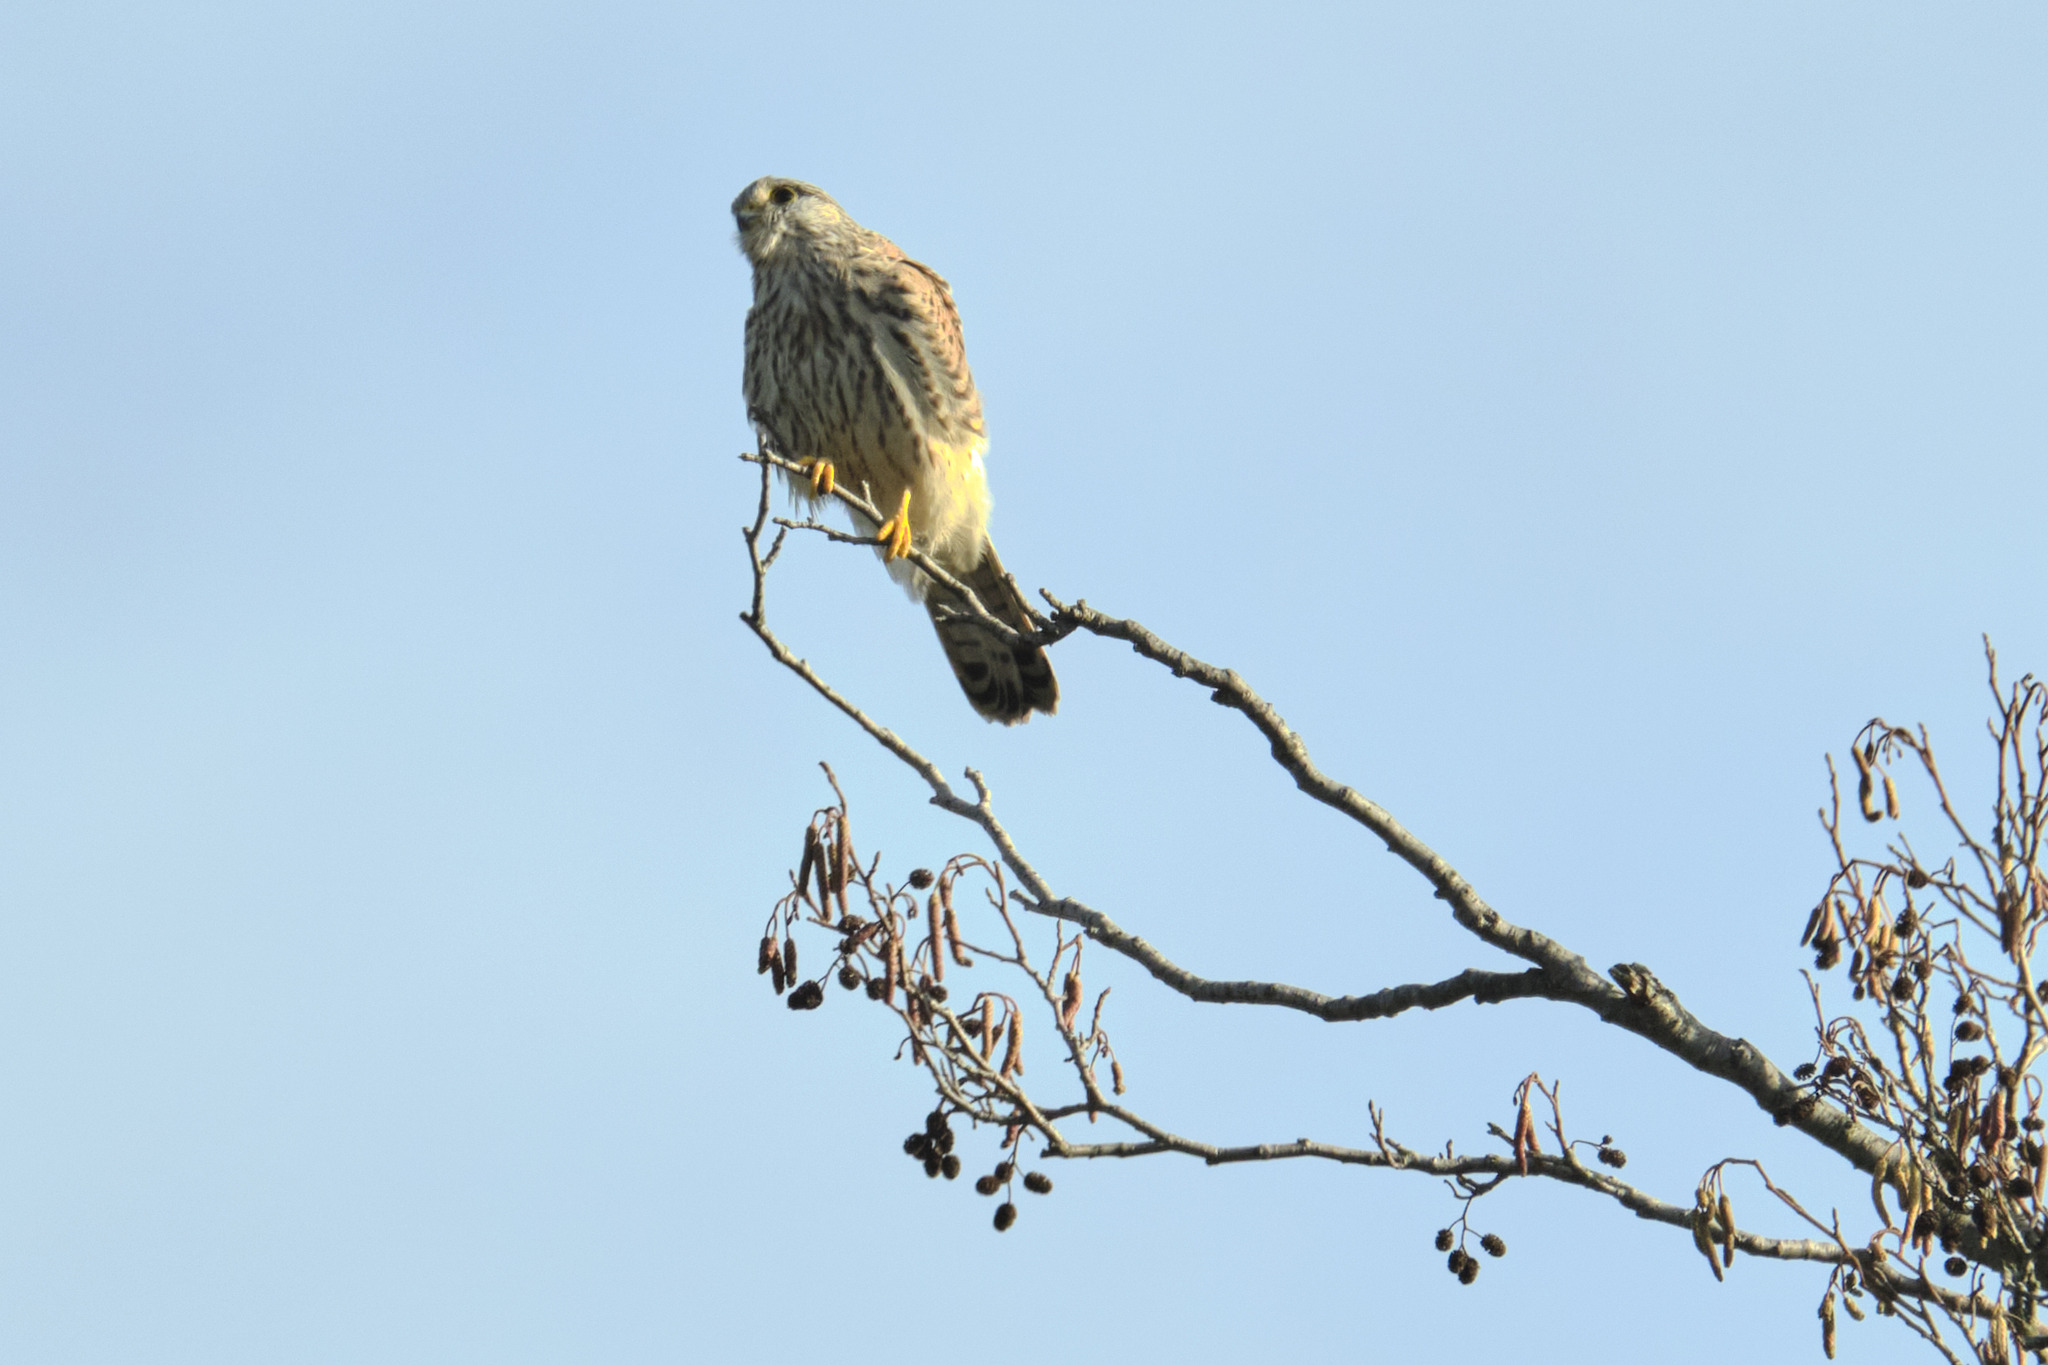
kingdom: Animalia
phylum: Chordata
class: Aves
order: Falconiformes
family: Falconidae
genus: Falco
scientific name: Falco tinnunculus
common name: Common kestrel
